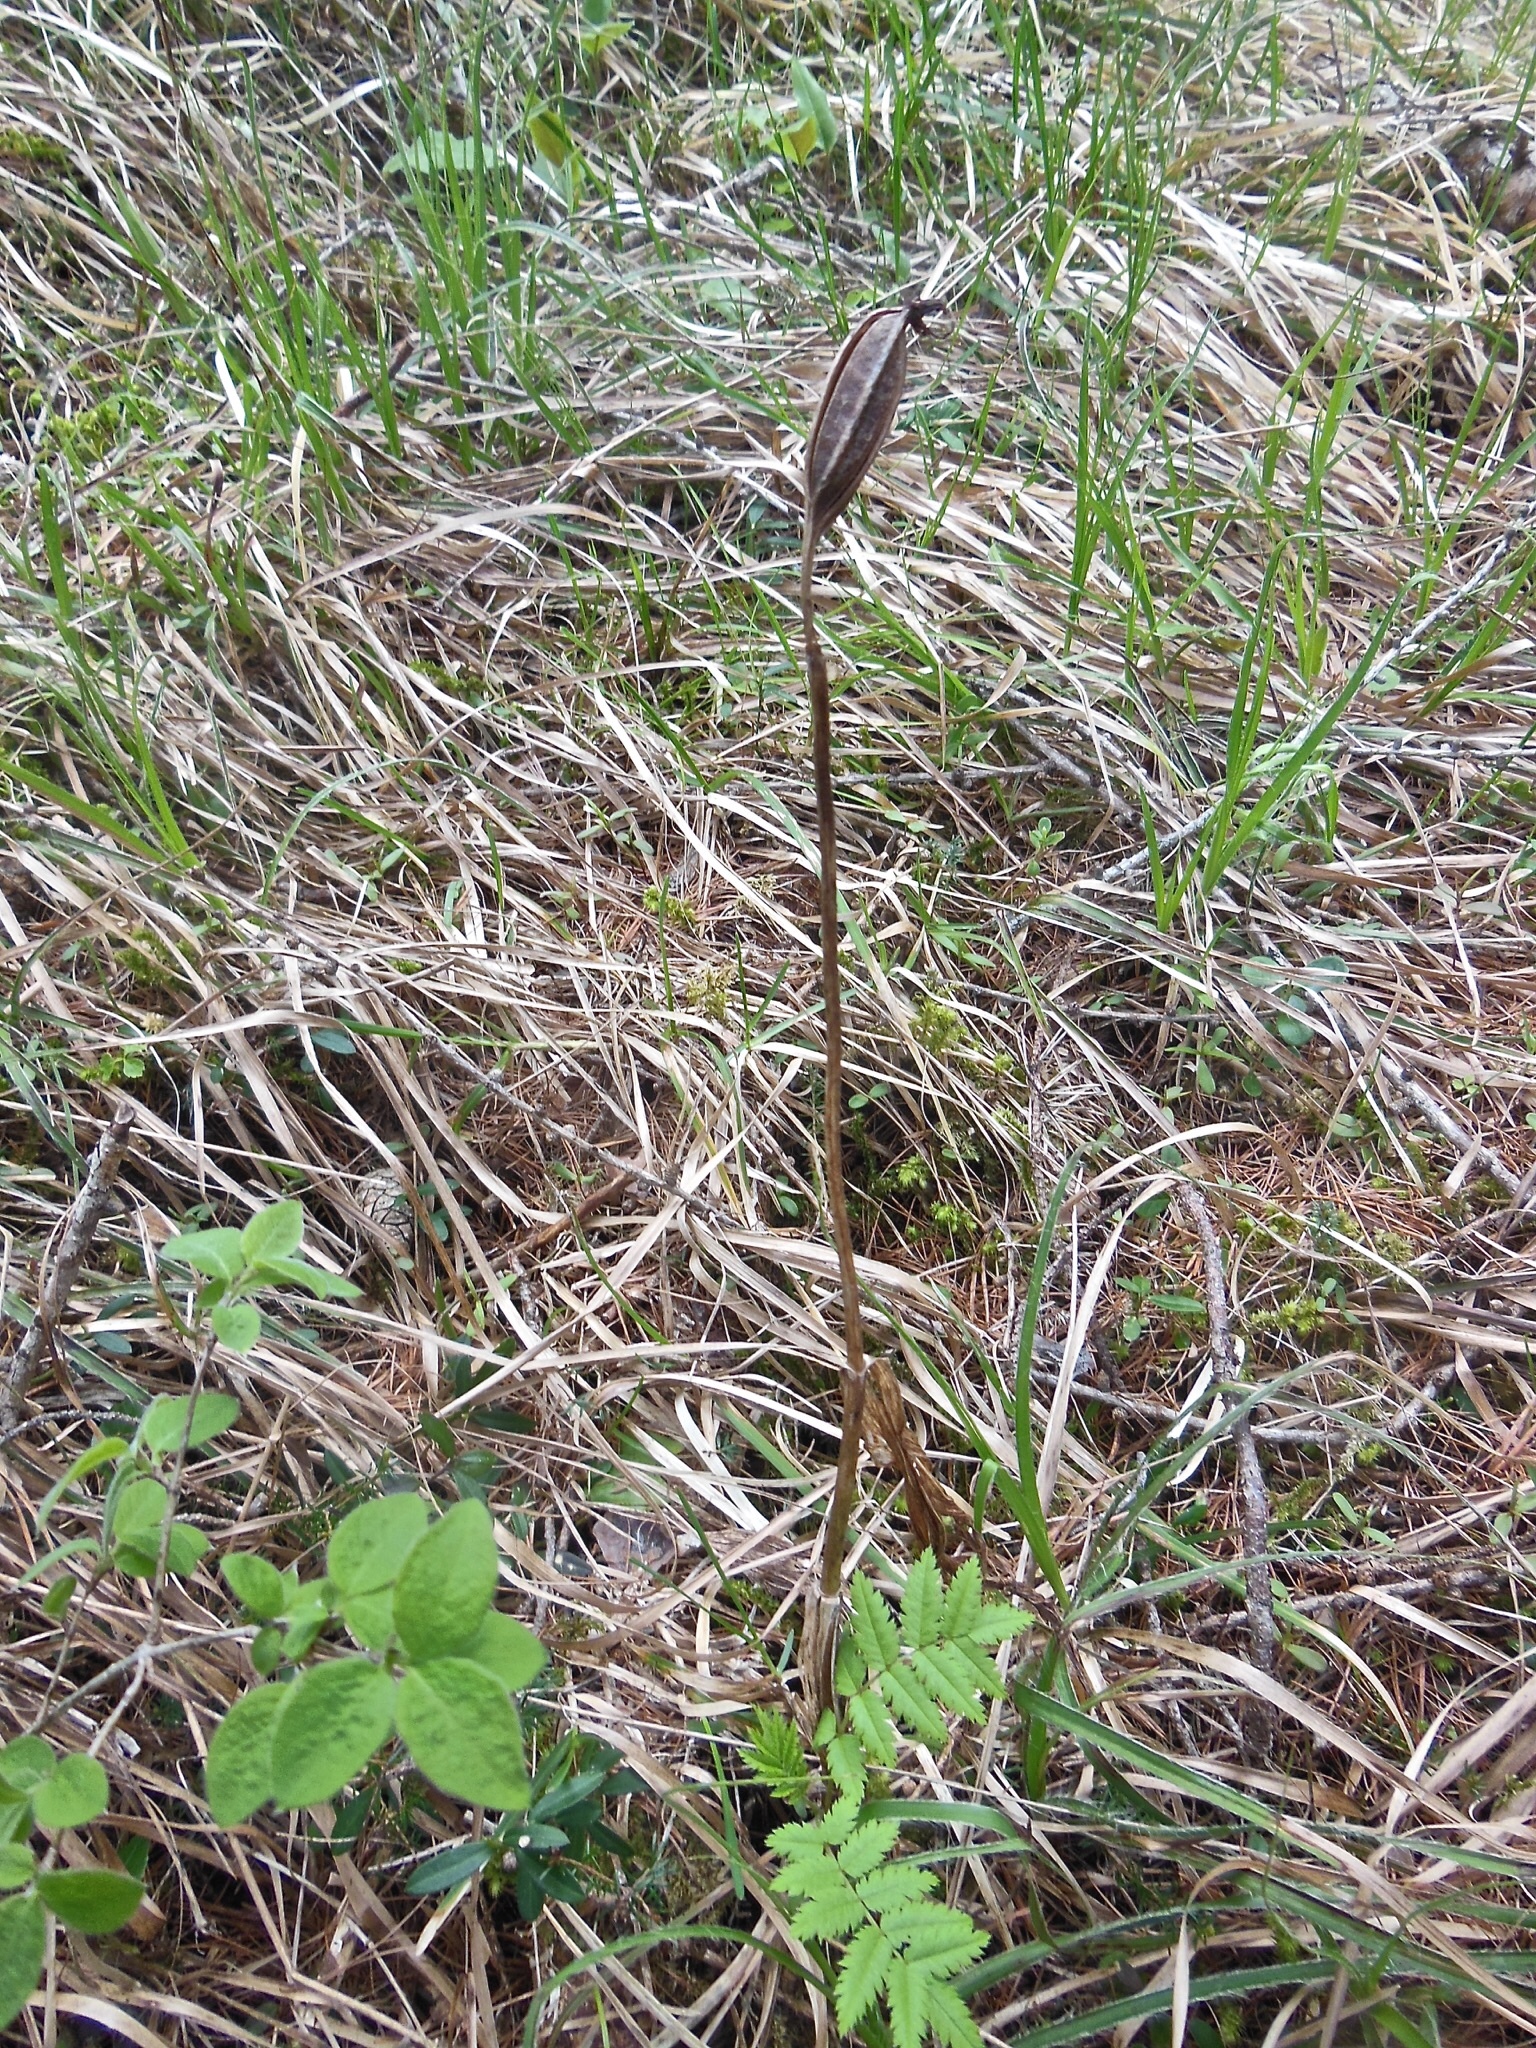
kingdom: Plantae
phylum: Tracheophyta
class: Liliopsida
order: Asparagales
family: Orchidaceae
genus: Cypripedium
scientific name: Cypripedium calceolus
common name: Lady's-slipper
